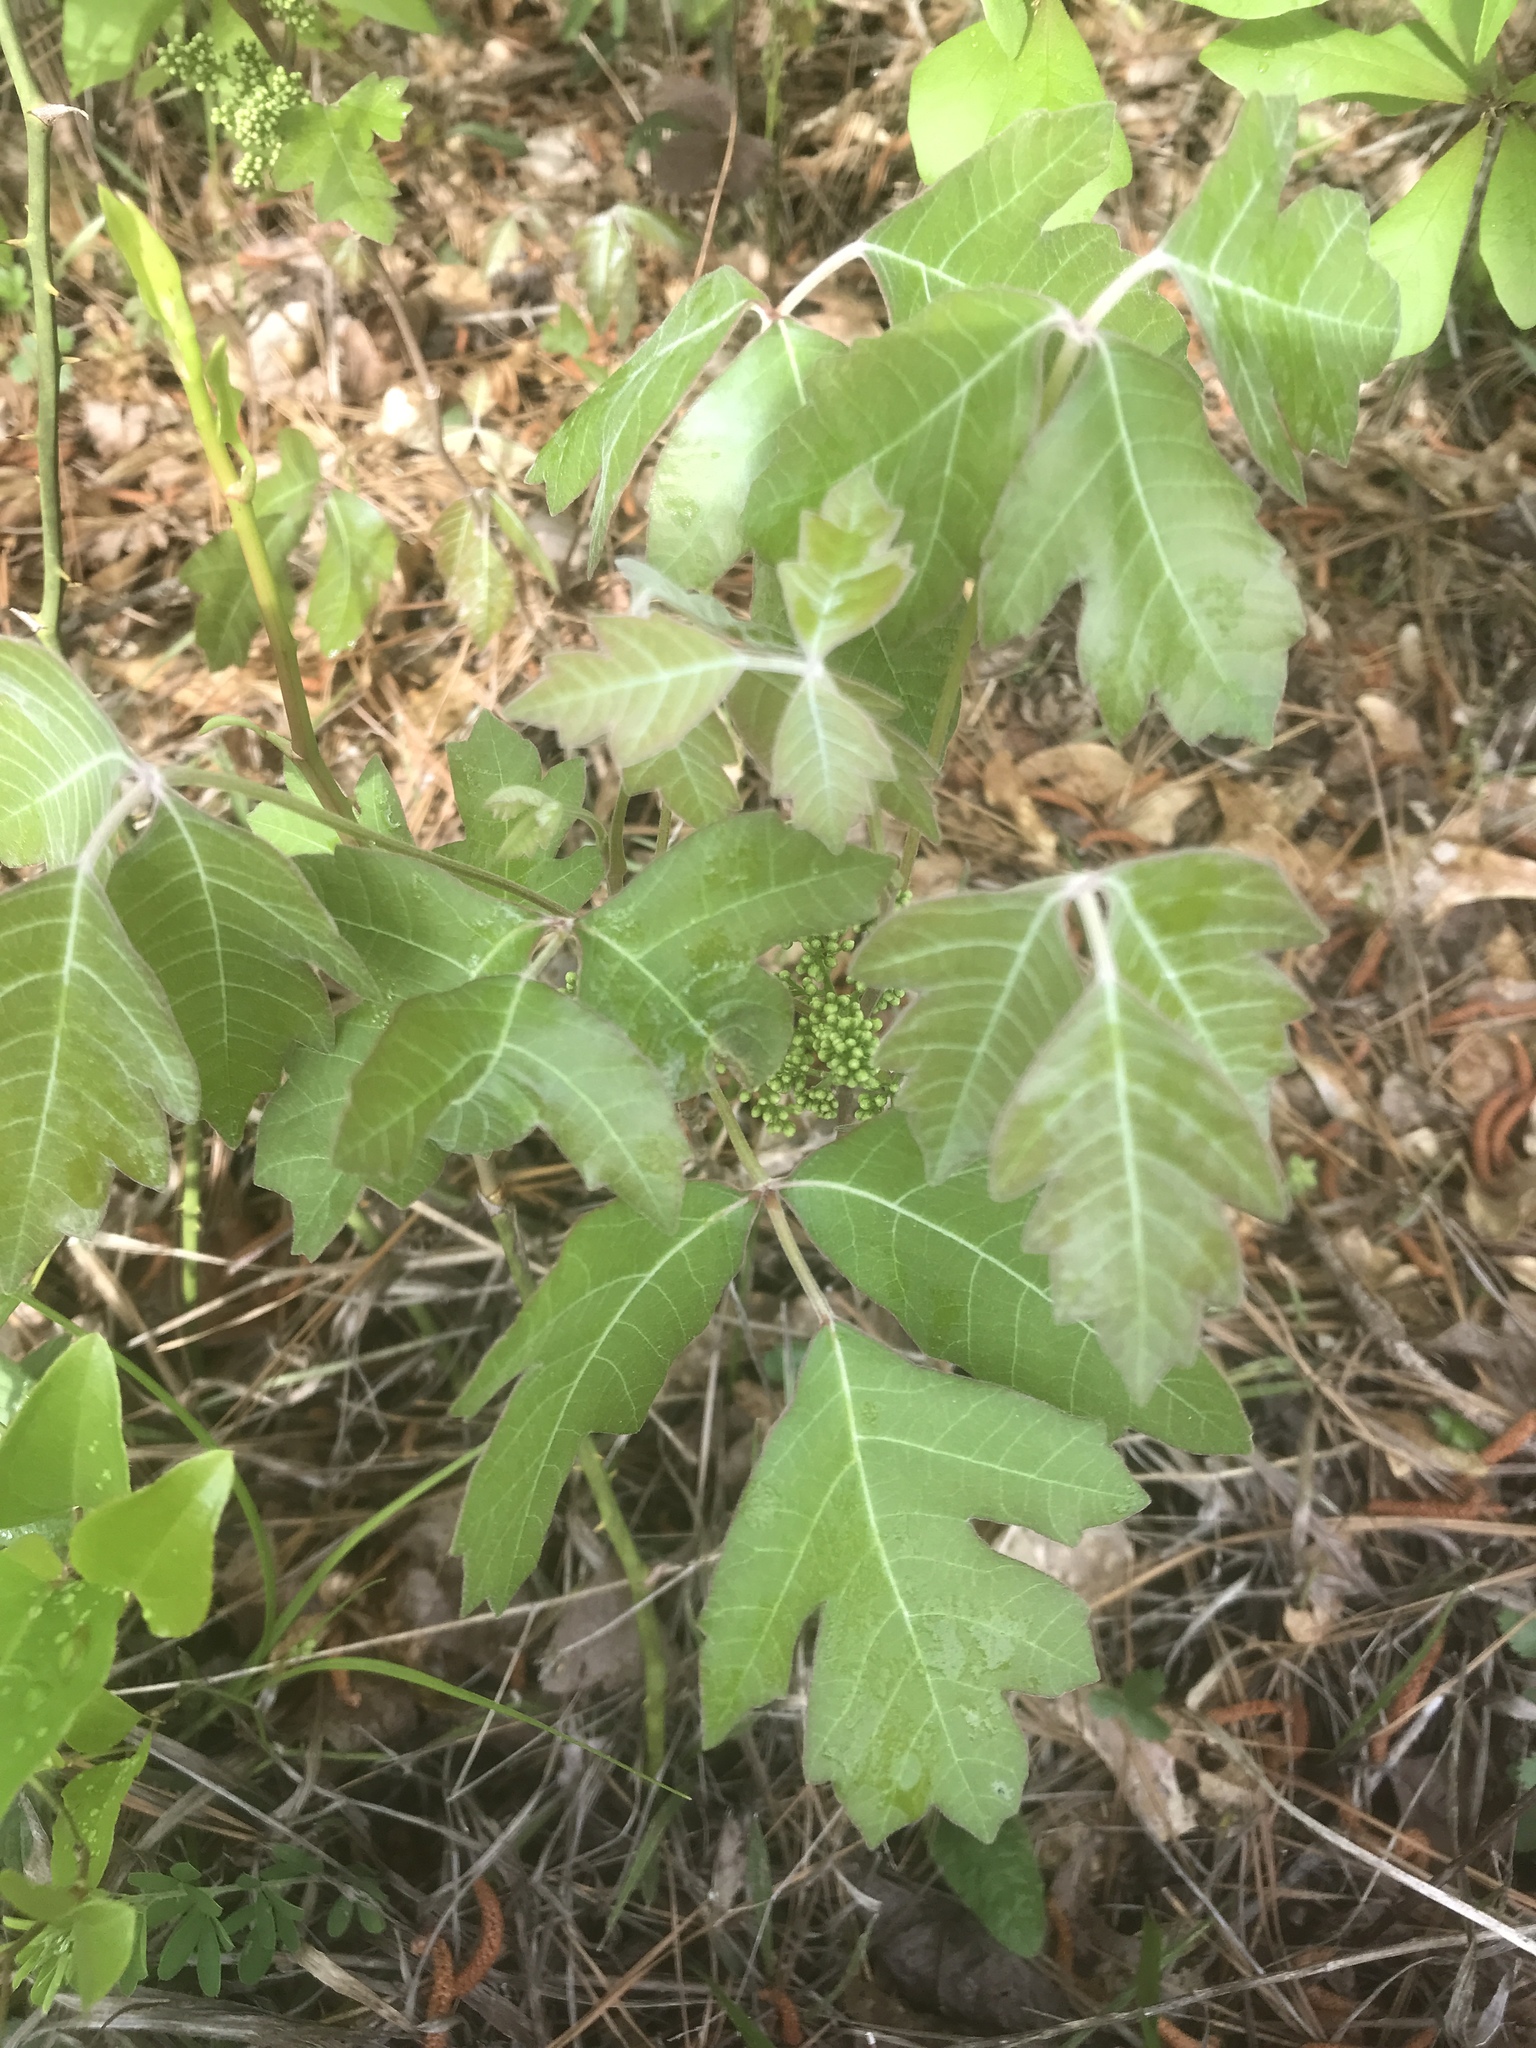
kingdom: Plantae
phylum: Tracheophyta
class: Magnoliopsida
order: Sapindales
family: Anacardiaceae
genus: Toxicodendron
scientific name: Toxicodendron pubescens
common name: Eastern poison-oak
